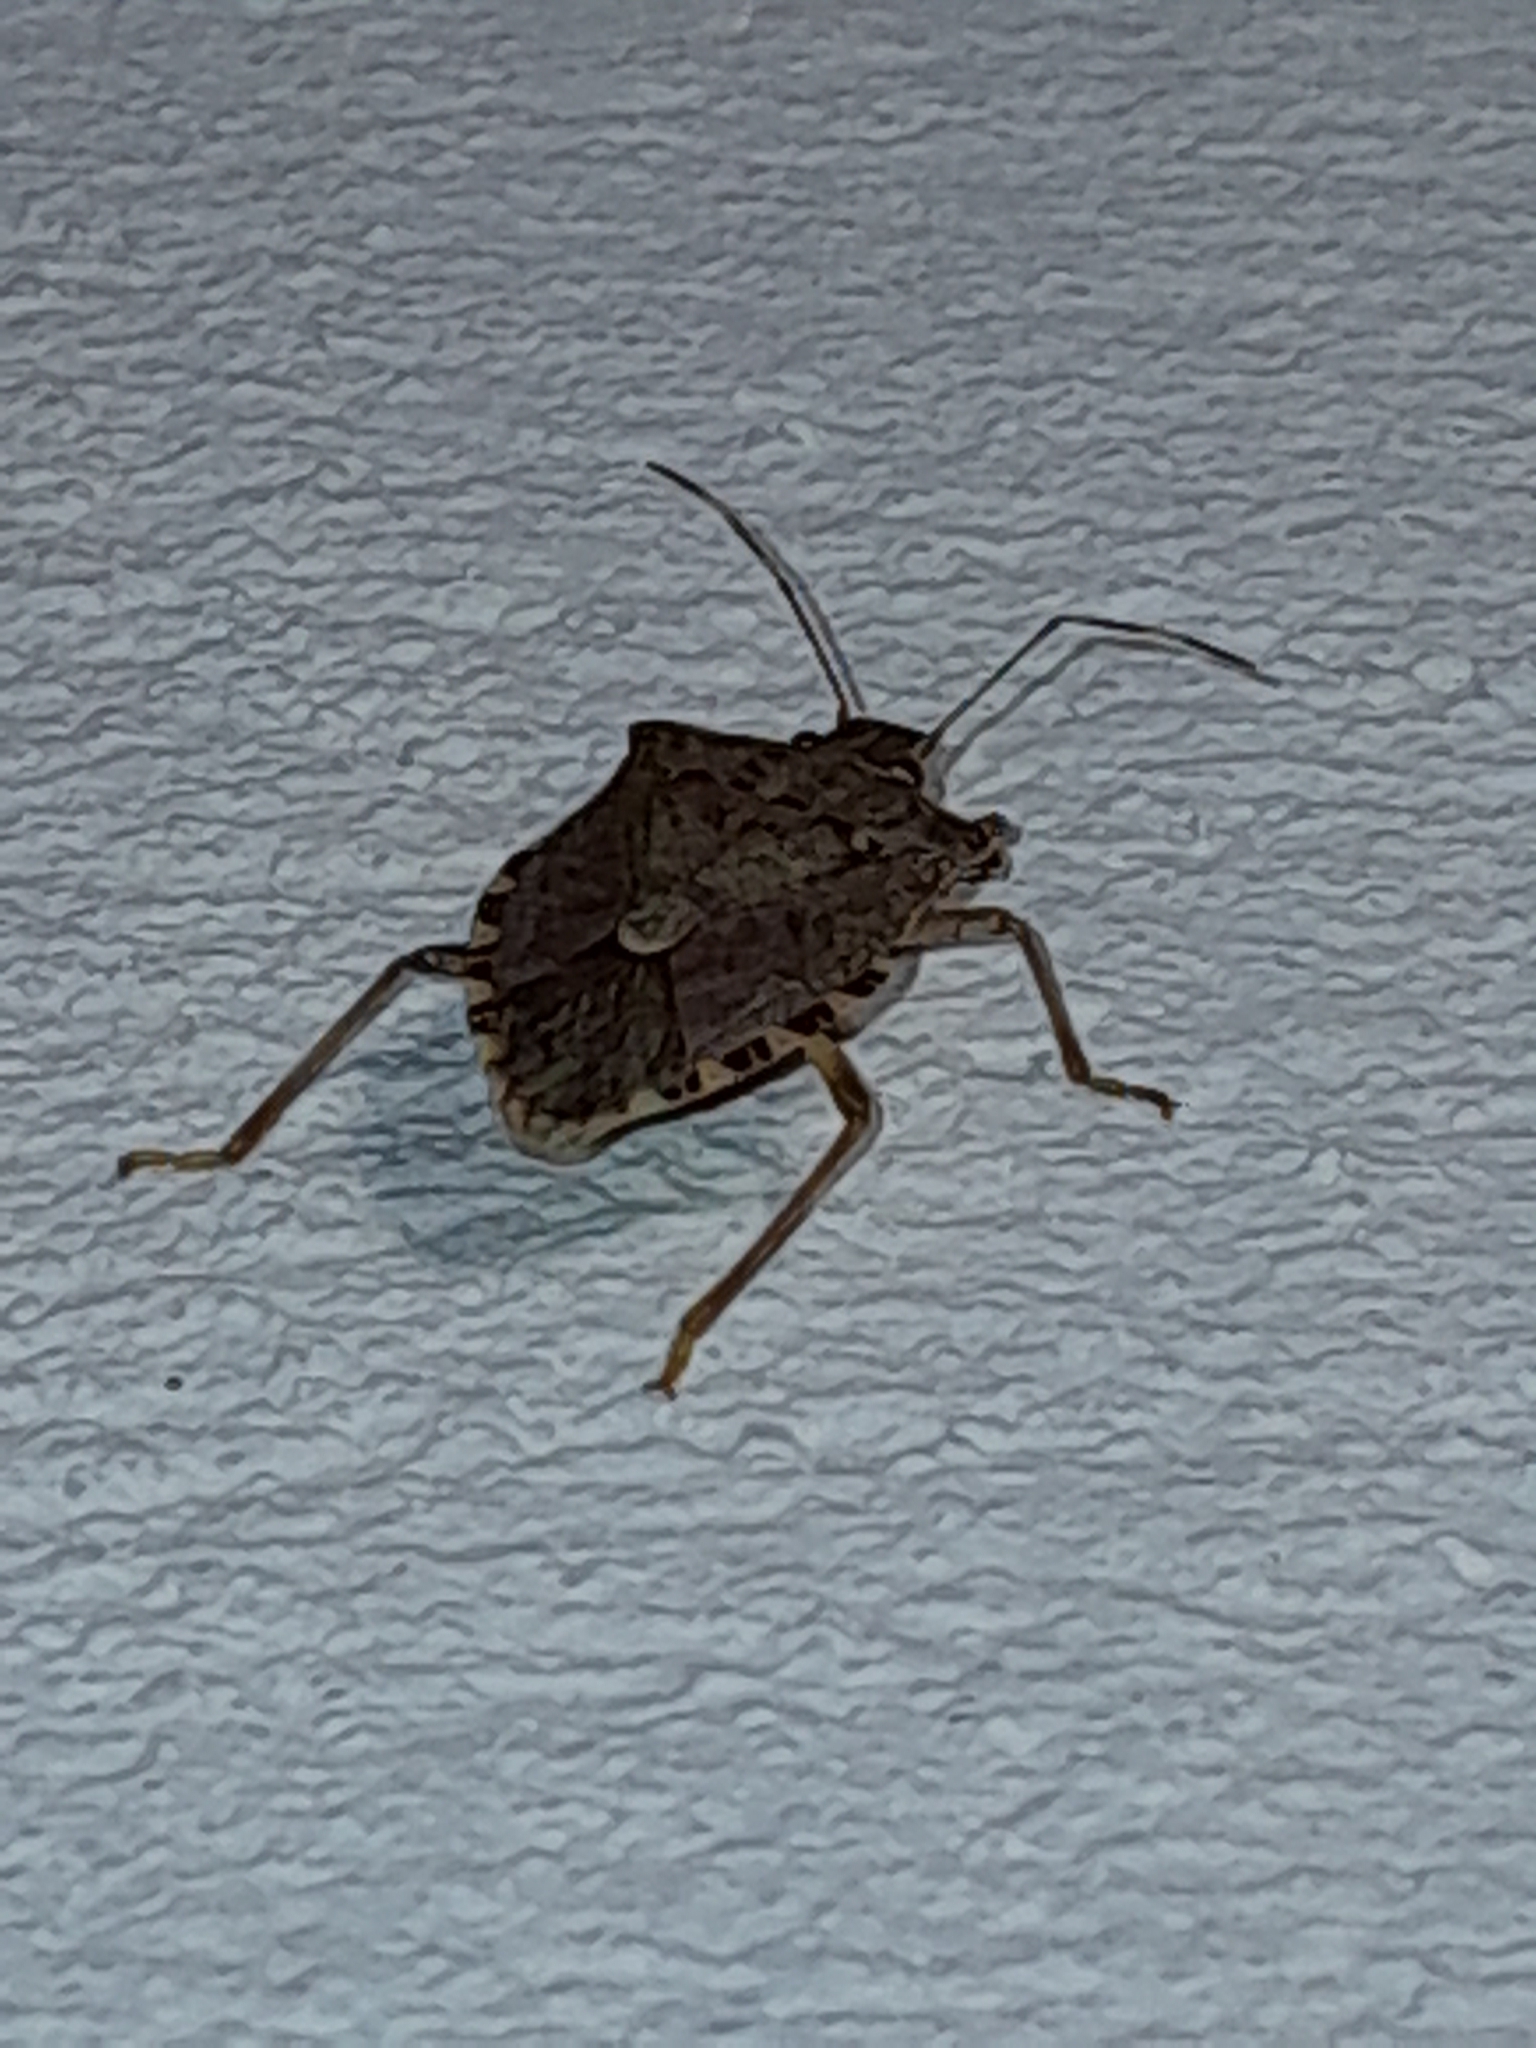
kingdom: Animalia
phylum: Arthropoda
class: Insecta
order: Hemiptera
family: Pentatomidae
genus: Halyomorpha
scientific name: Halyomorpha halys
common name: Brown marmorated stink bug
